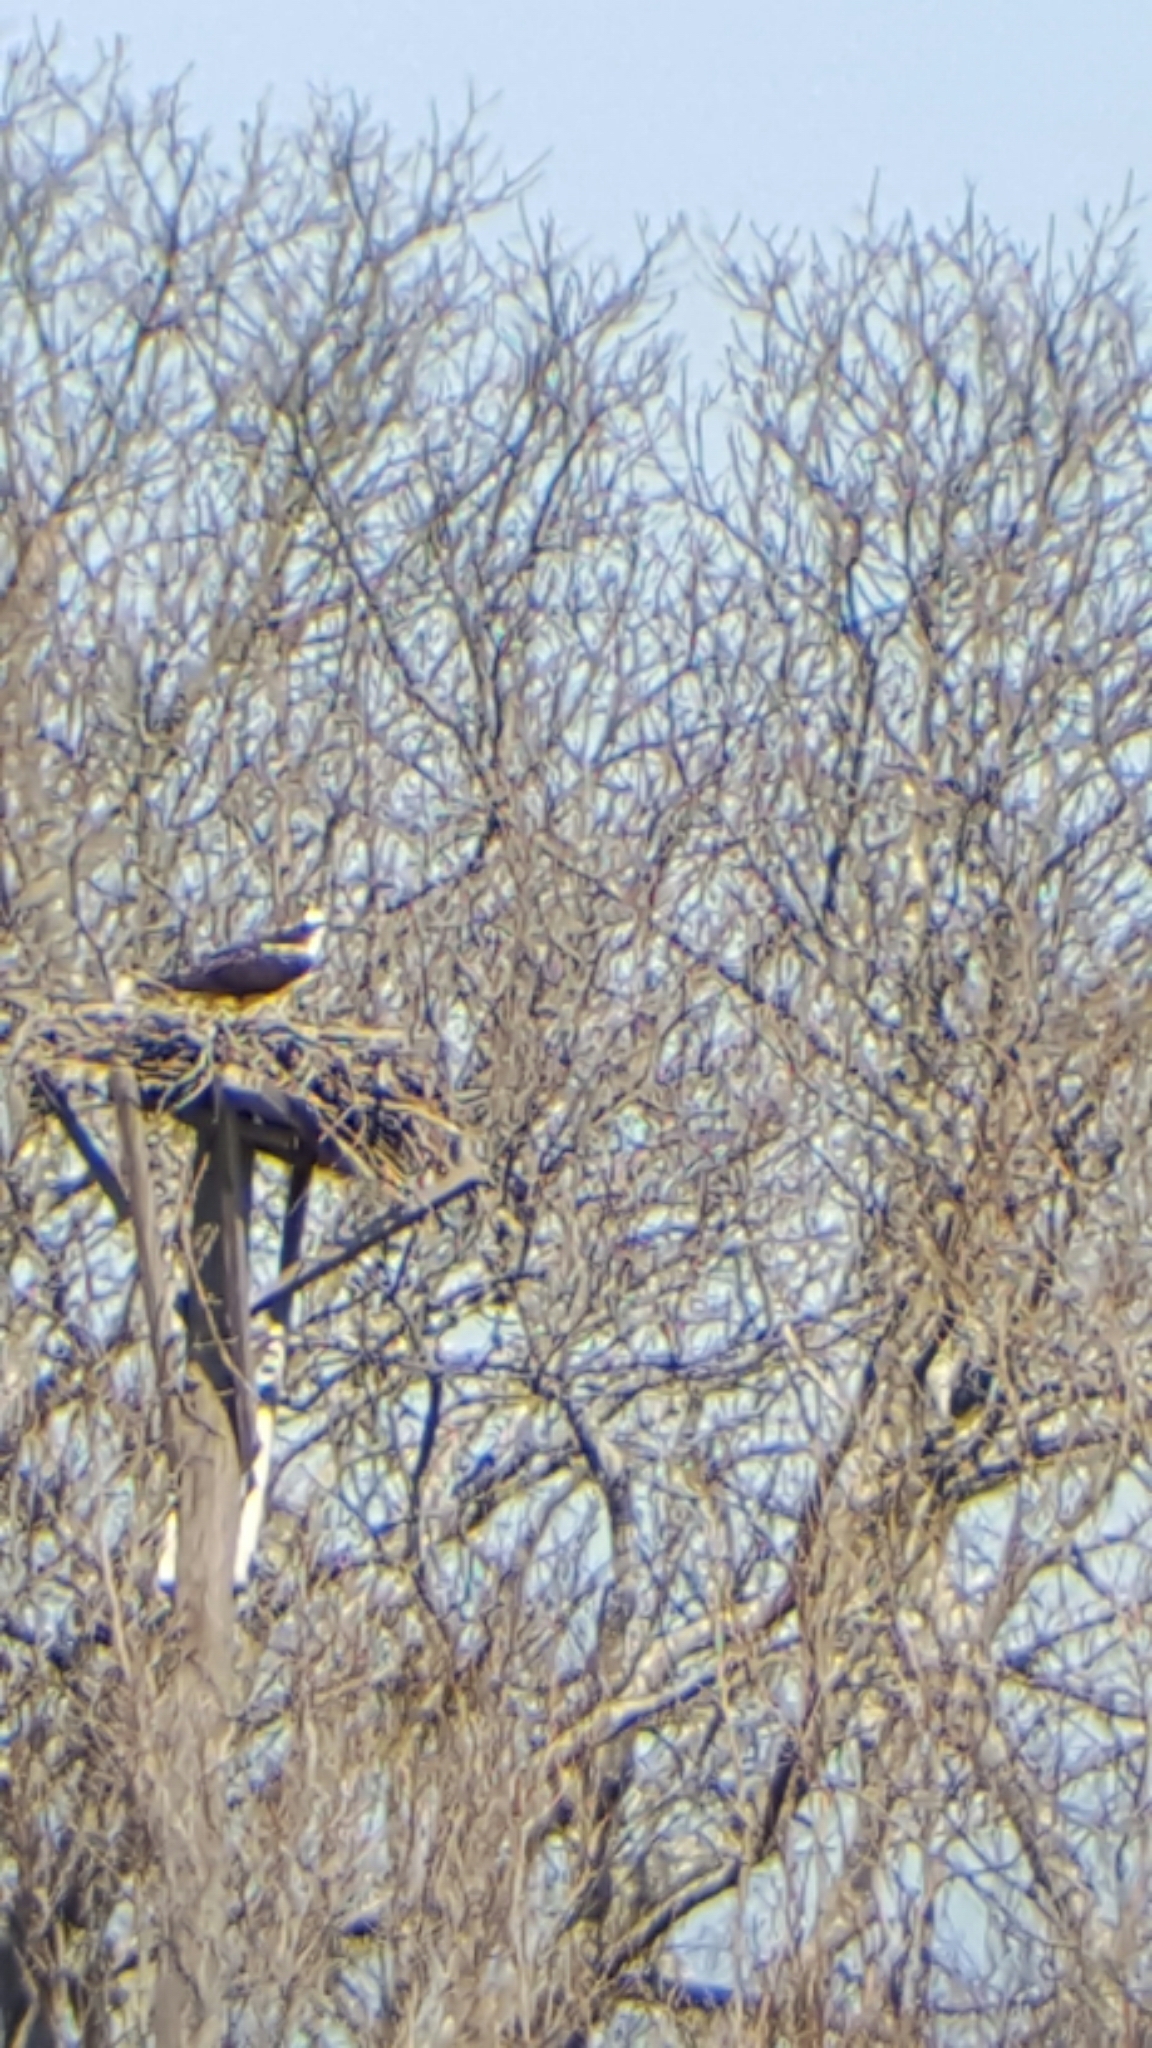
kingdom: Animalia
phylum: Chordata
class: Aves
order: Accipitriformes
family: Pandionidae
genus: Pandion
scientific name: Pandion haliaetus
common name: Osprey
